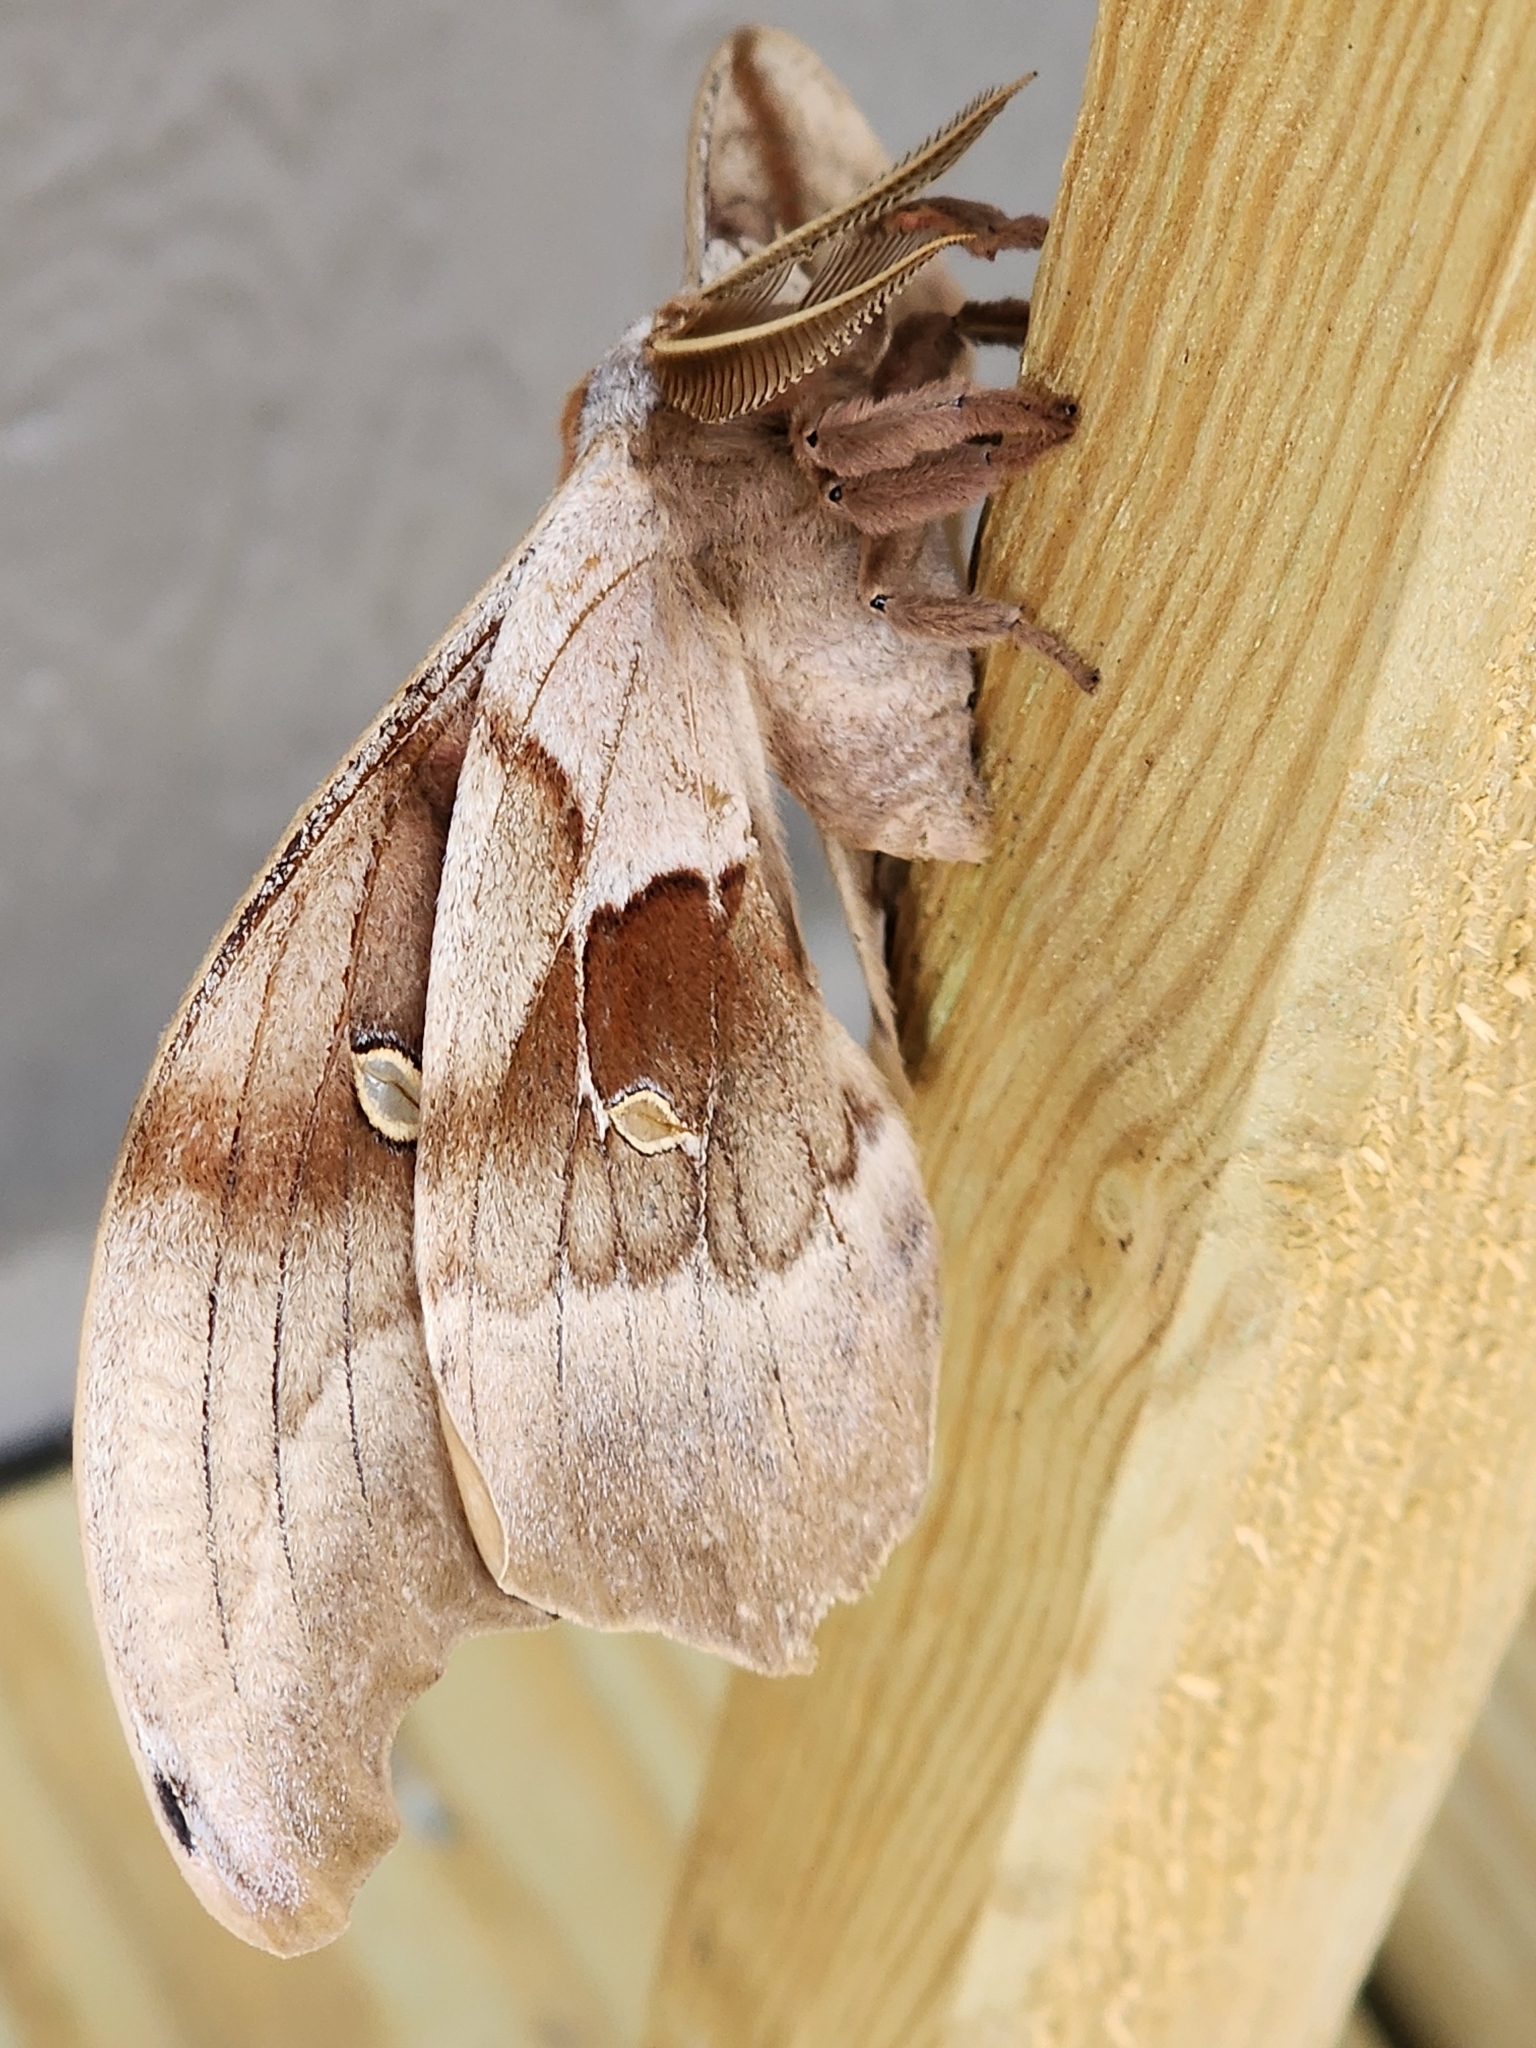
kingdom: Animalia
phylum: Arthropoda
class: Insecta
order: Lepidoptera
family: Saturniidae
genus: Antheraea
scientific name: Antheraea polyphemus
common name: Polyphemus moth
